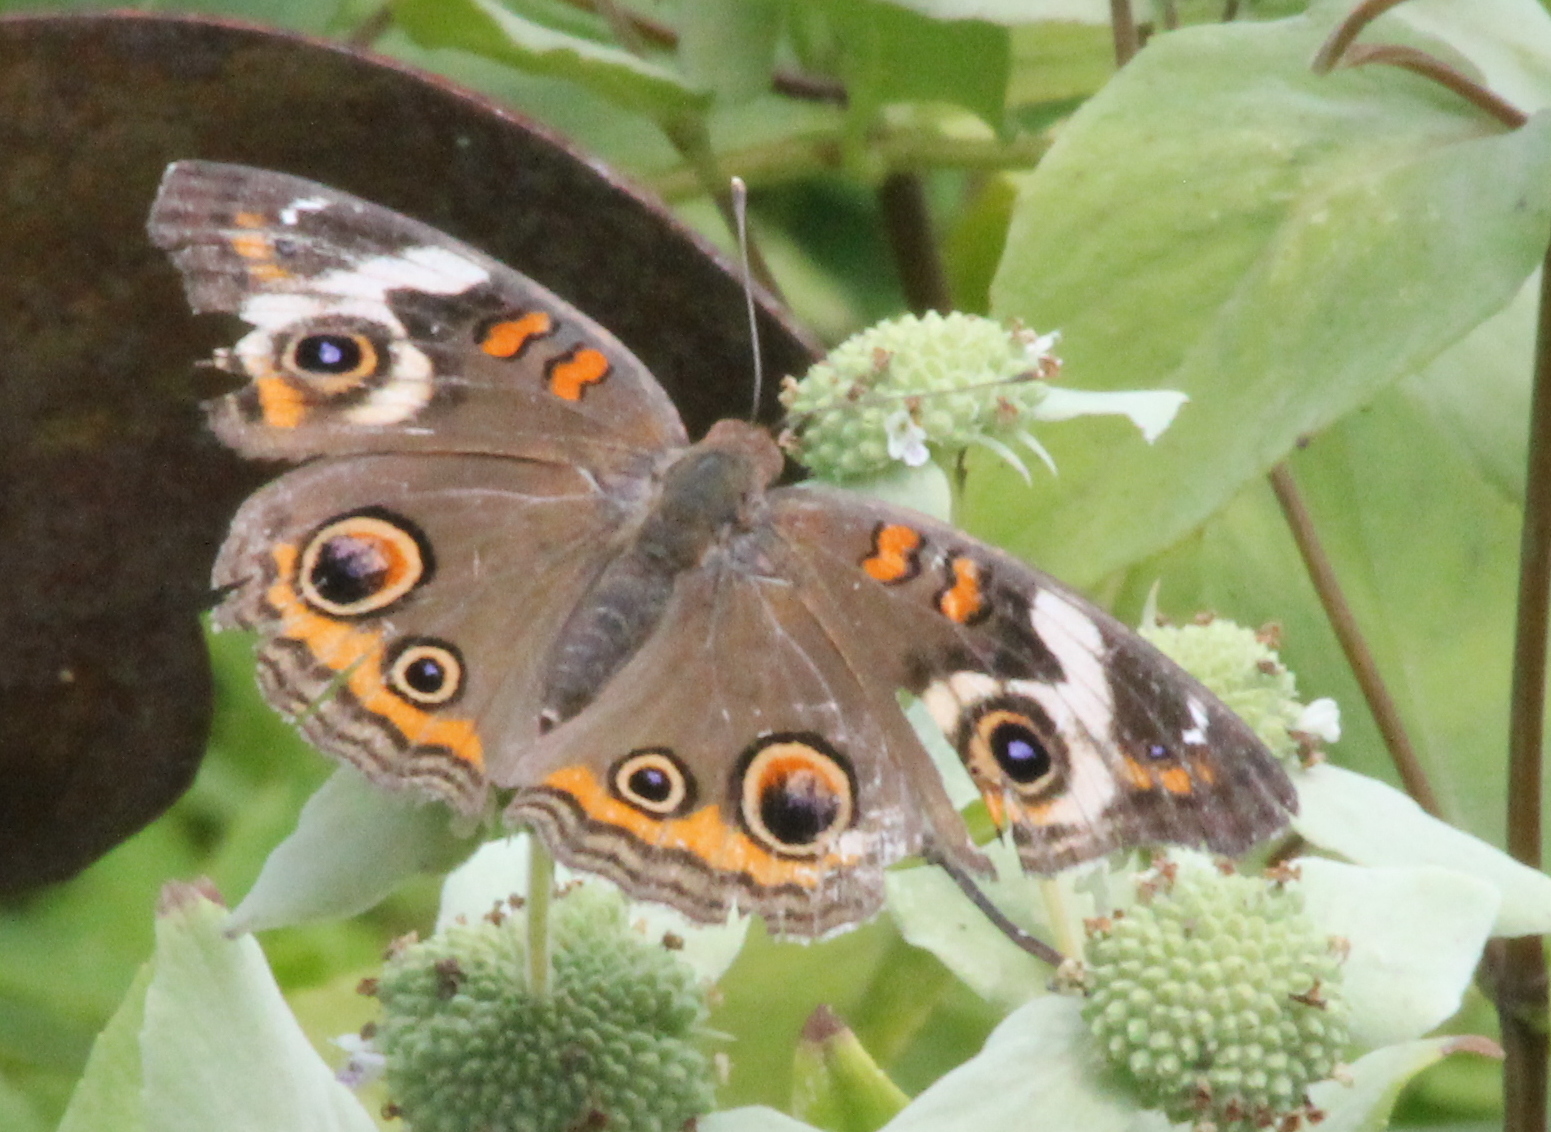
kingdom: Animalia
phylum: Arthropoda
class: Insecta
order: Lepidoptera
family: Nymphalidae
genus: Junonia
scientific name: Junonia coenia
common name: Common buckeye
